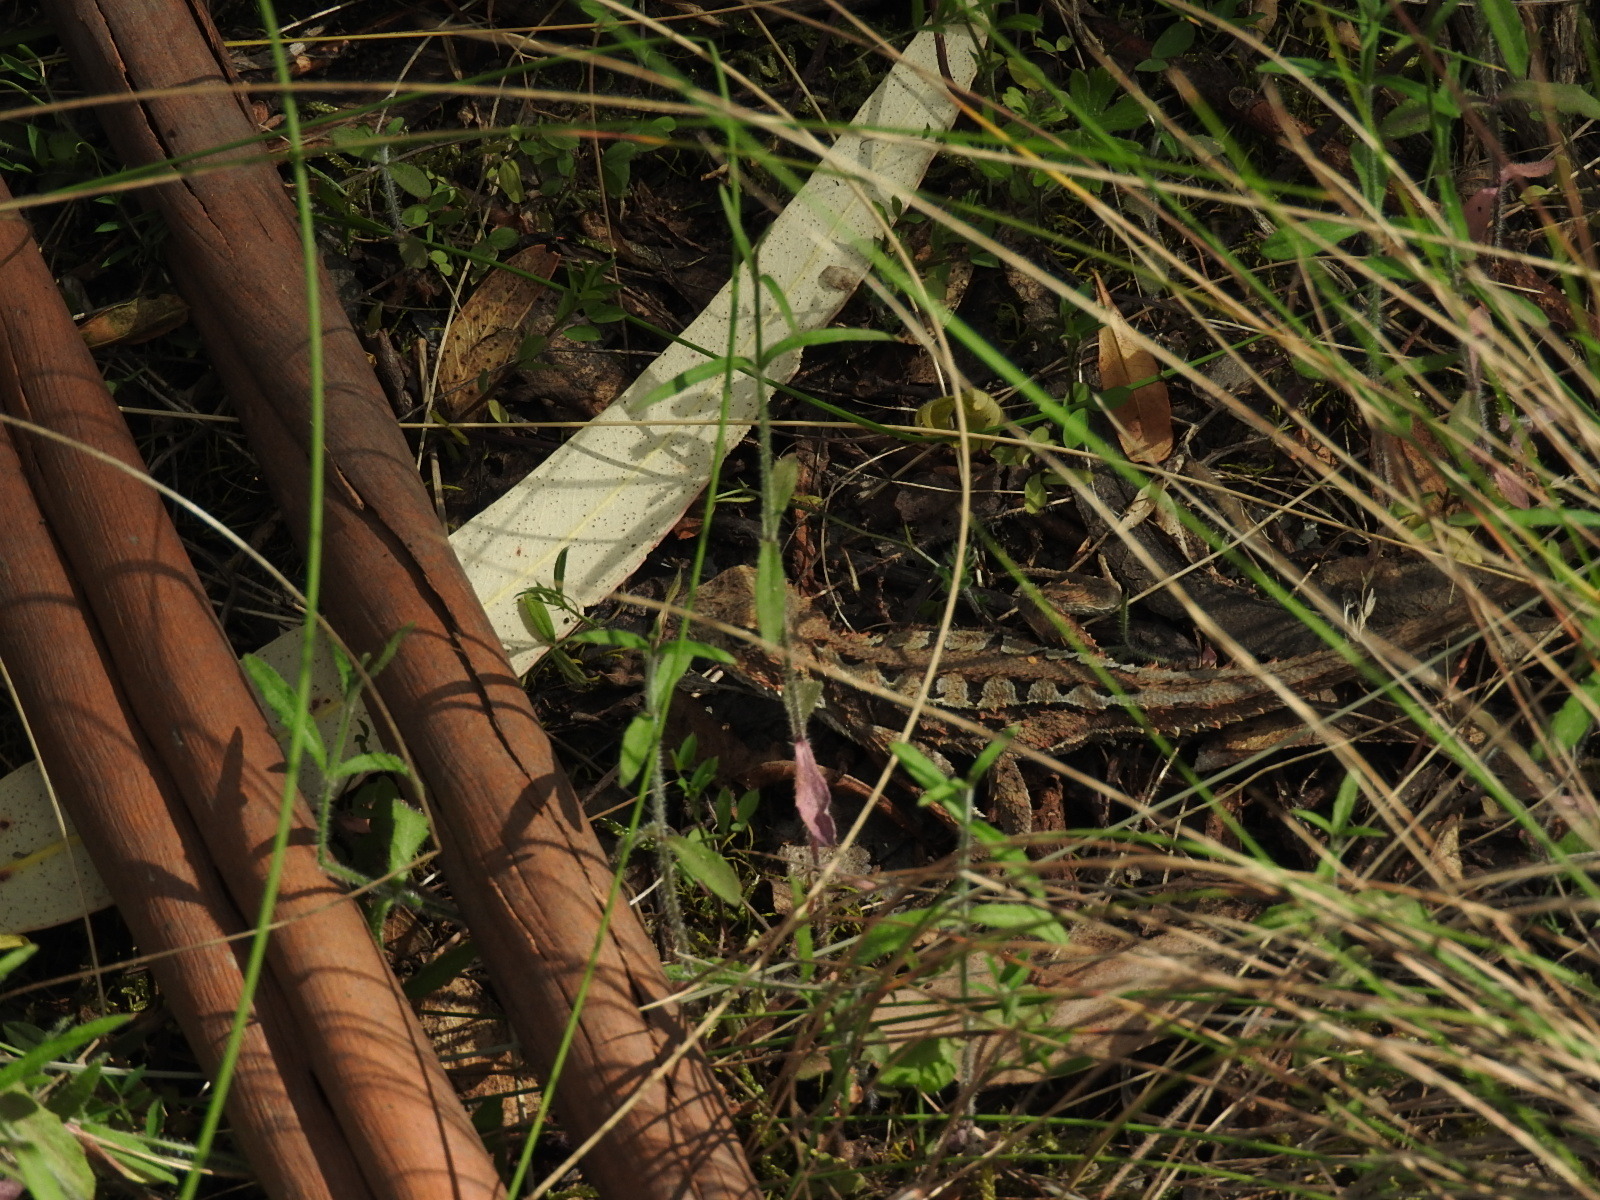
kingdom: Animalia
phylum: Chordata
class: Squamata
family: Agamidae
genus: Rankinia
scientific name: Rankinia diemensis
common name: Mountain dragon
